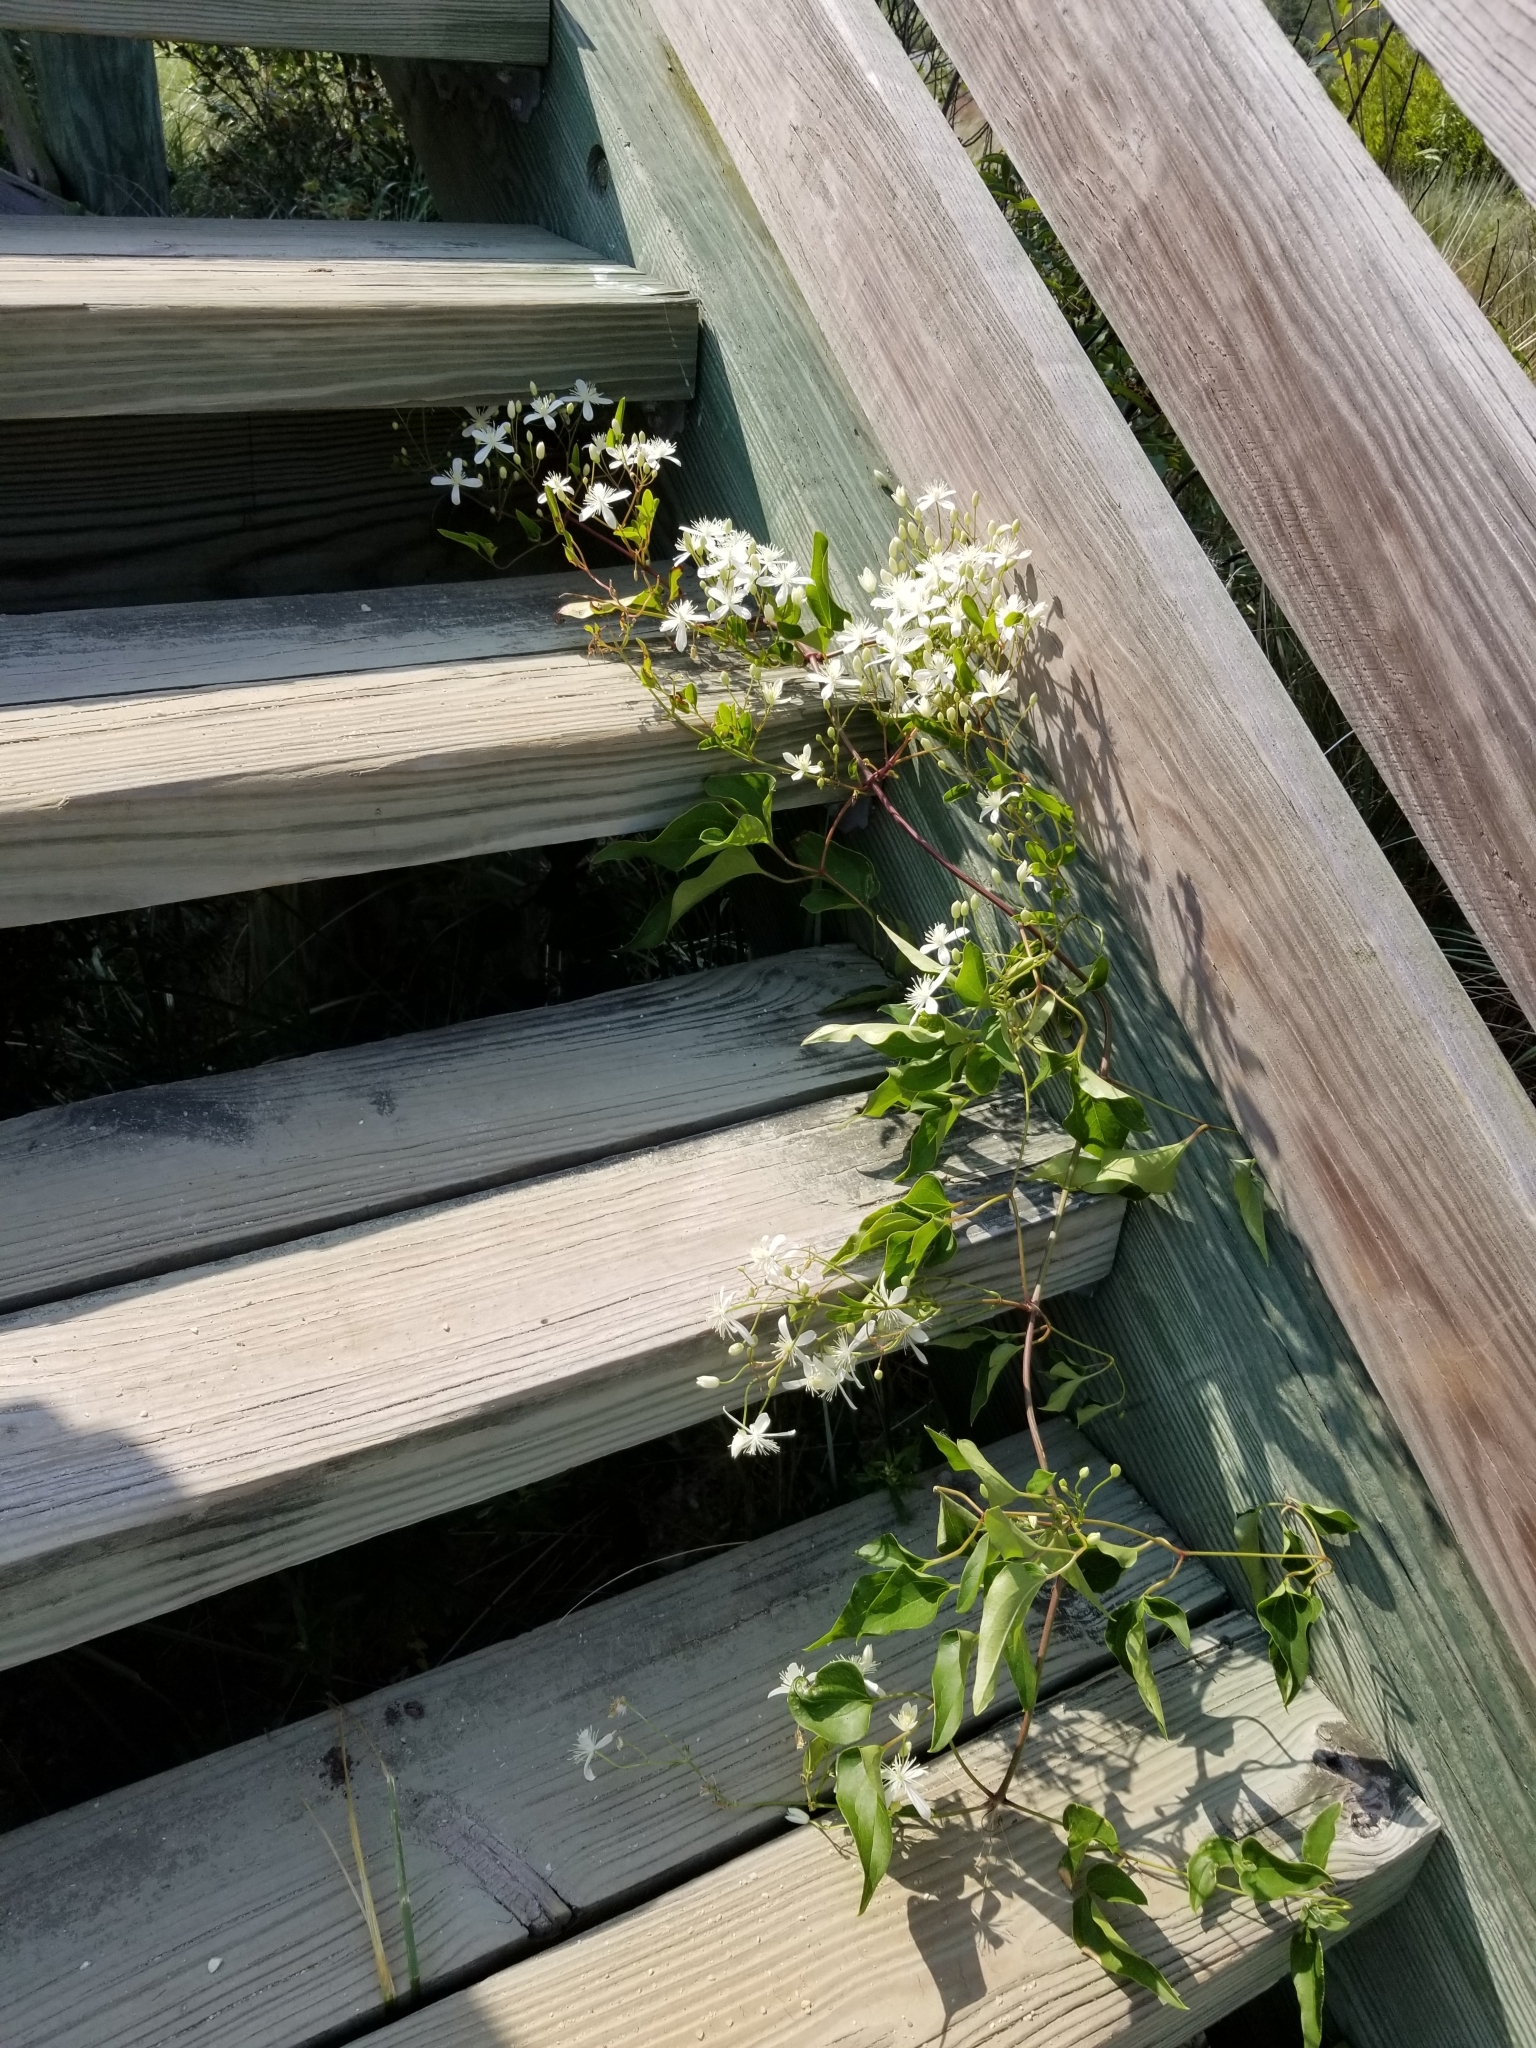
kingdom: Plantae
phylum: Tracheophyta
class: Magnoliopsida
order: Ranunculales
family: Ranunculaceae
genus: Clematis
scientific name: Clematis terniflora
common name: Sweet autumn clematis
